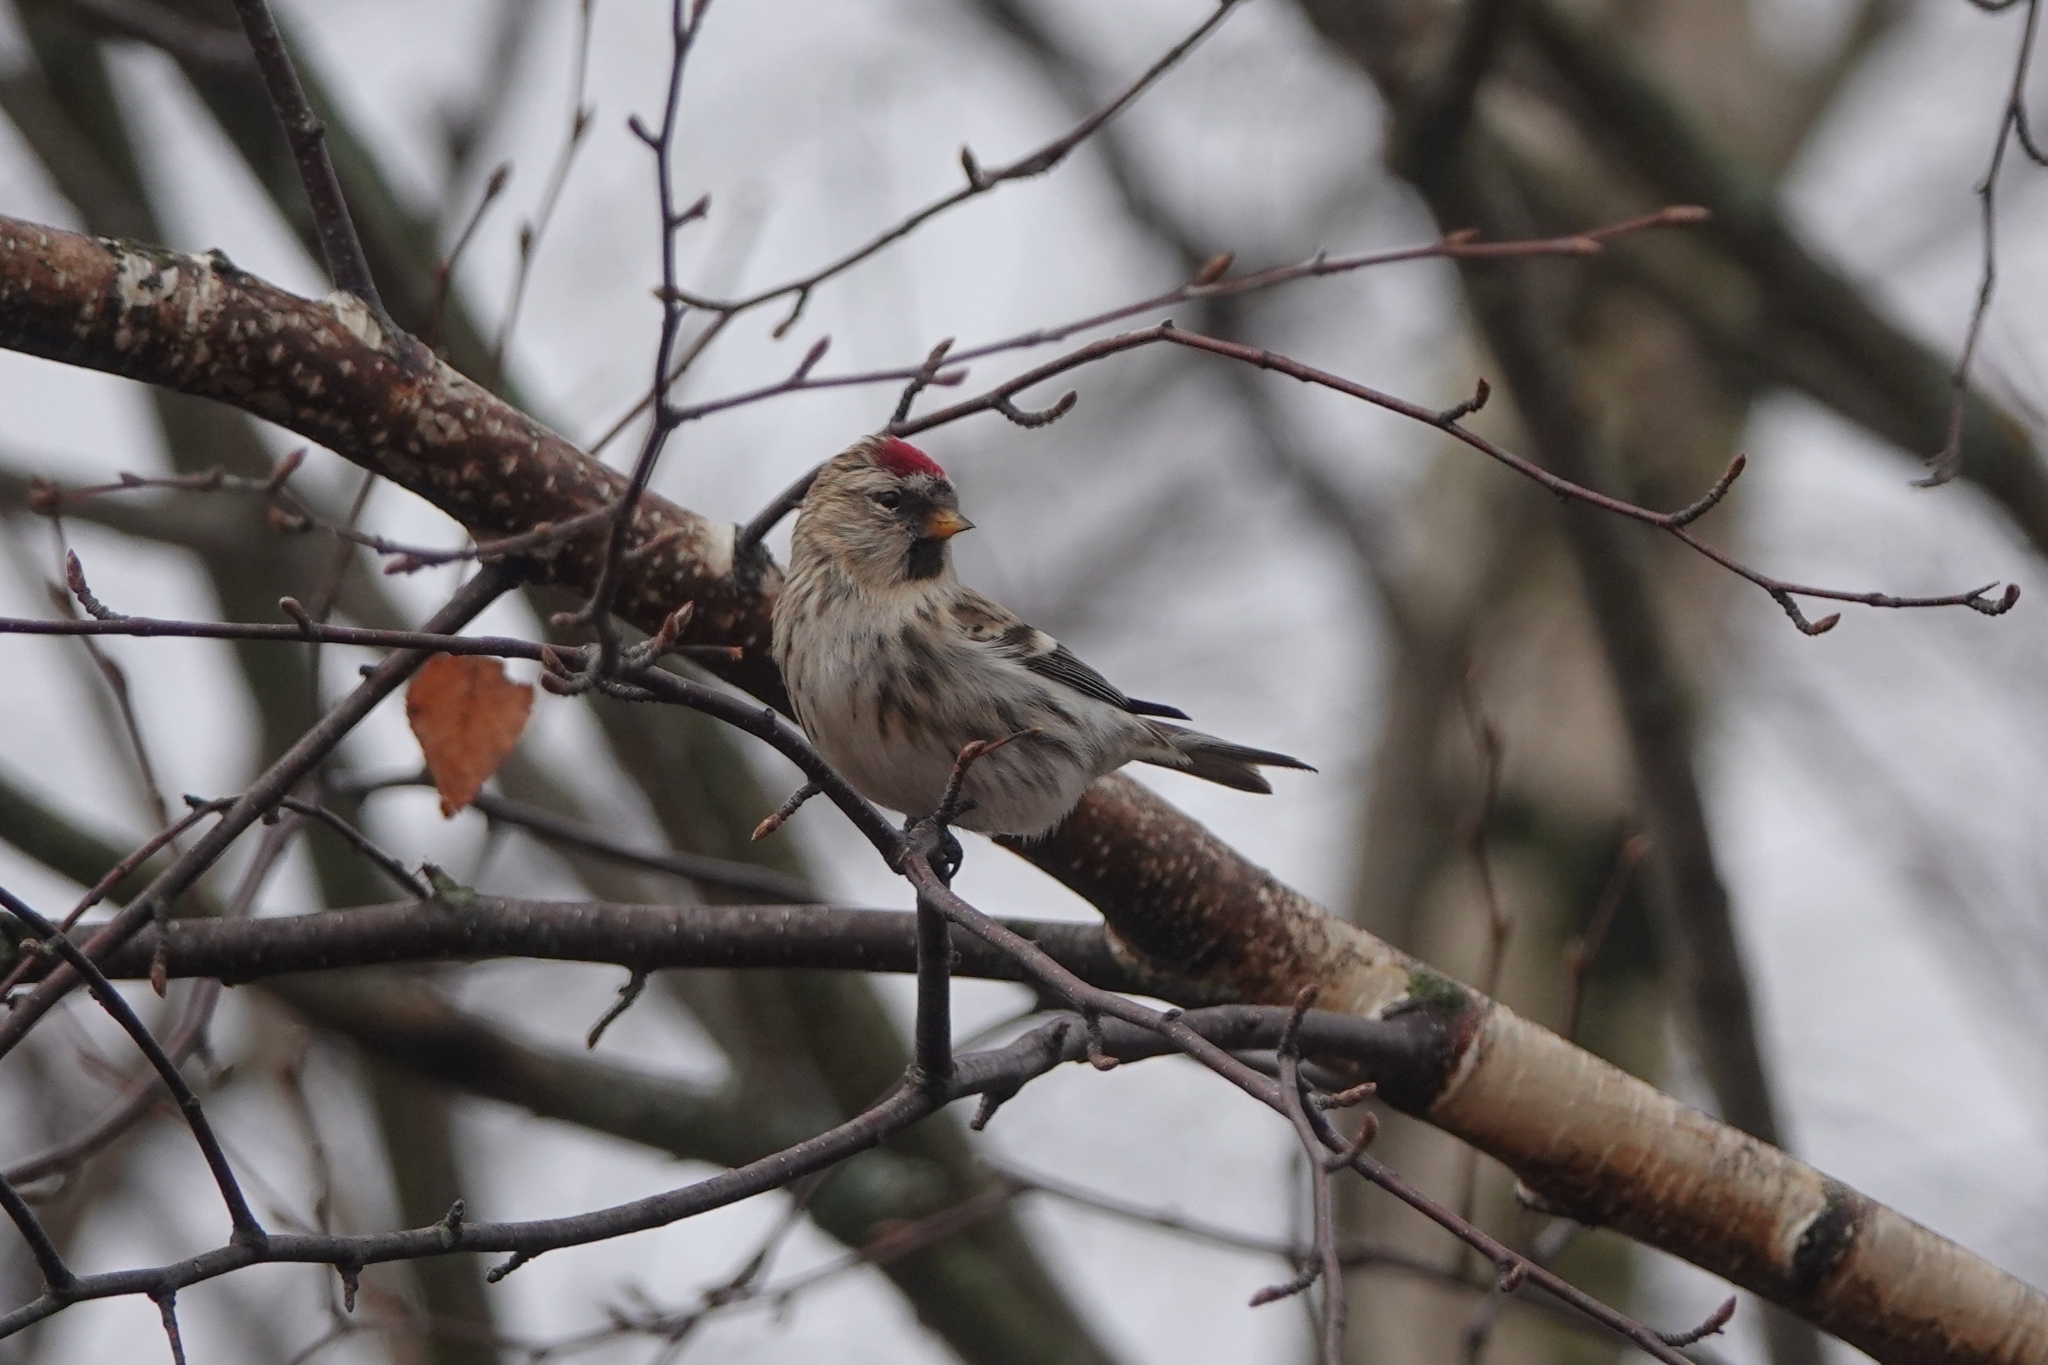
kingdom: Animalia
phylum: Chordata
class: Aves
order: Passeriformes
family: Fringillidae
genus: Acanthis
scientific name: Acanthis flammea
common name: Common redpoll
